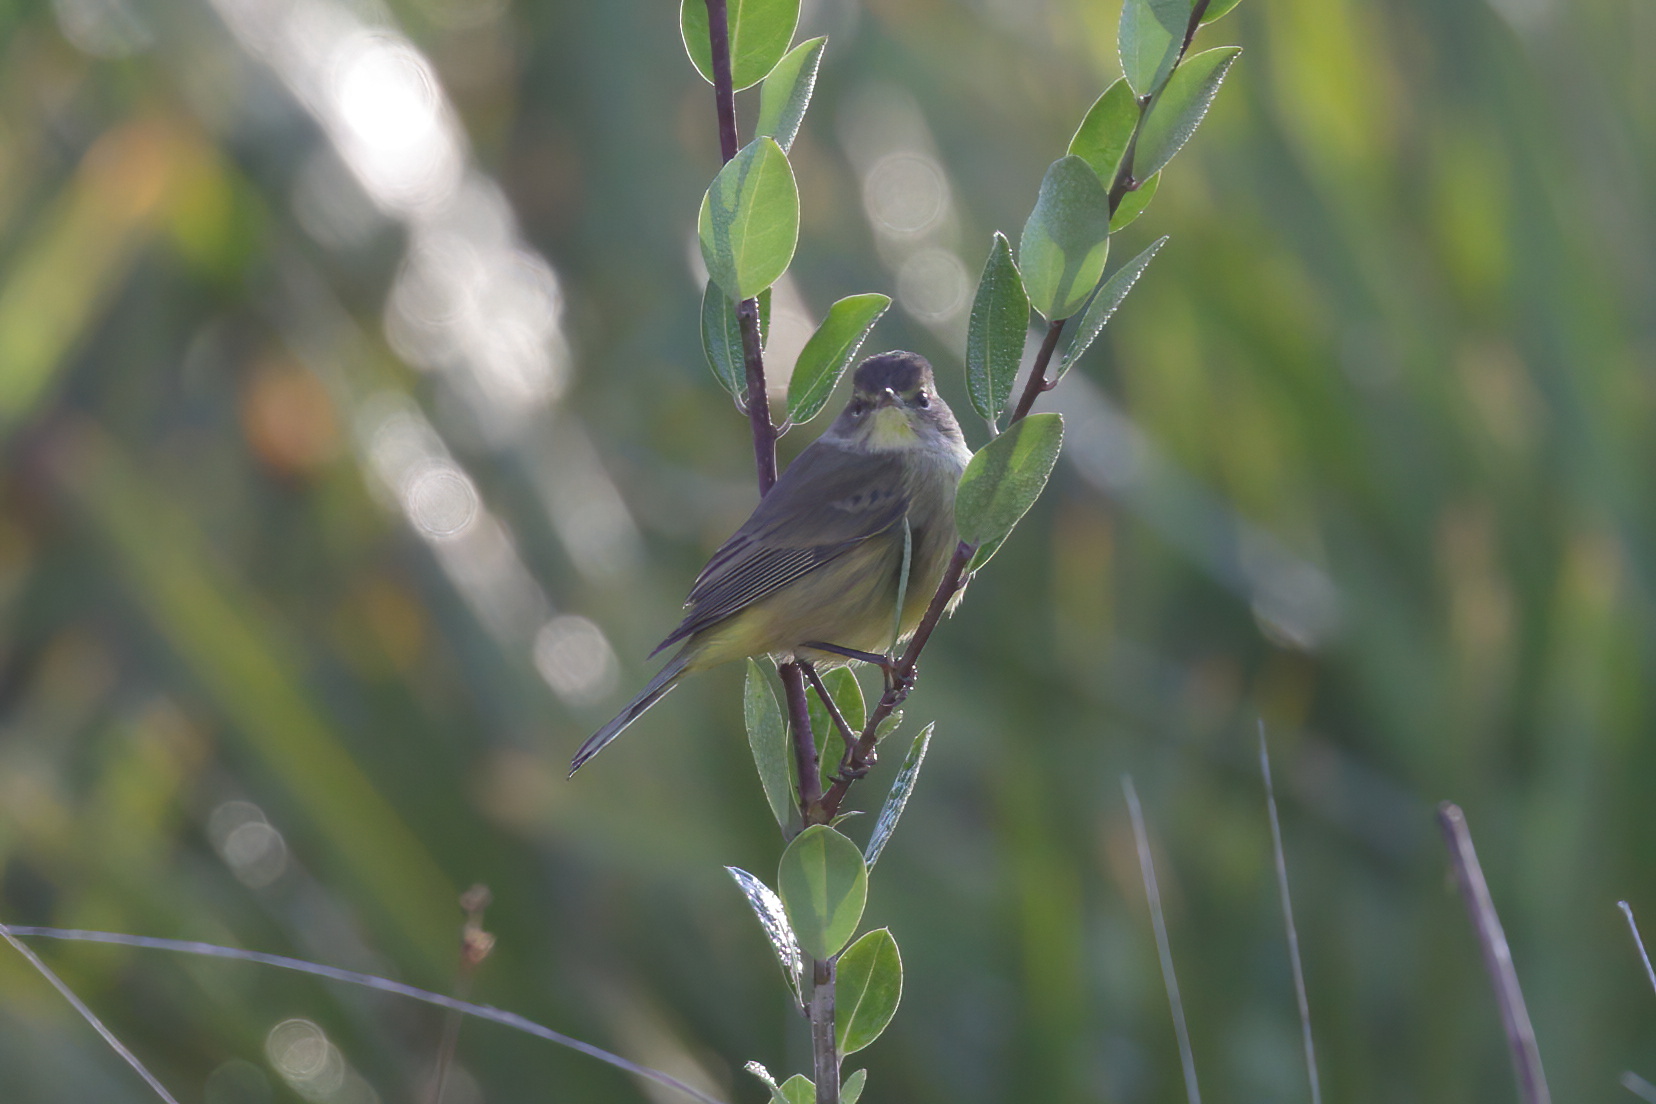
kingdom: Animalia
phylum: Chordata
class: Aves
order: Passeriformes
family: Parulidae
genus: Setophaga
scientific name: Setophaga palmarum
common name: Palm warbler
